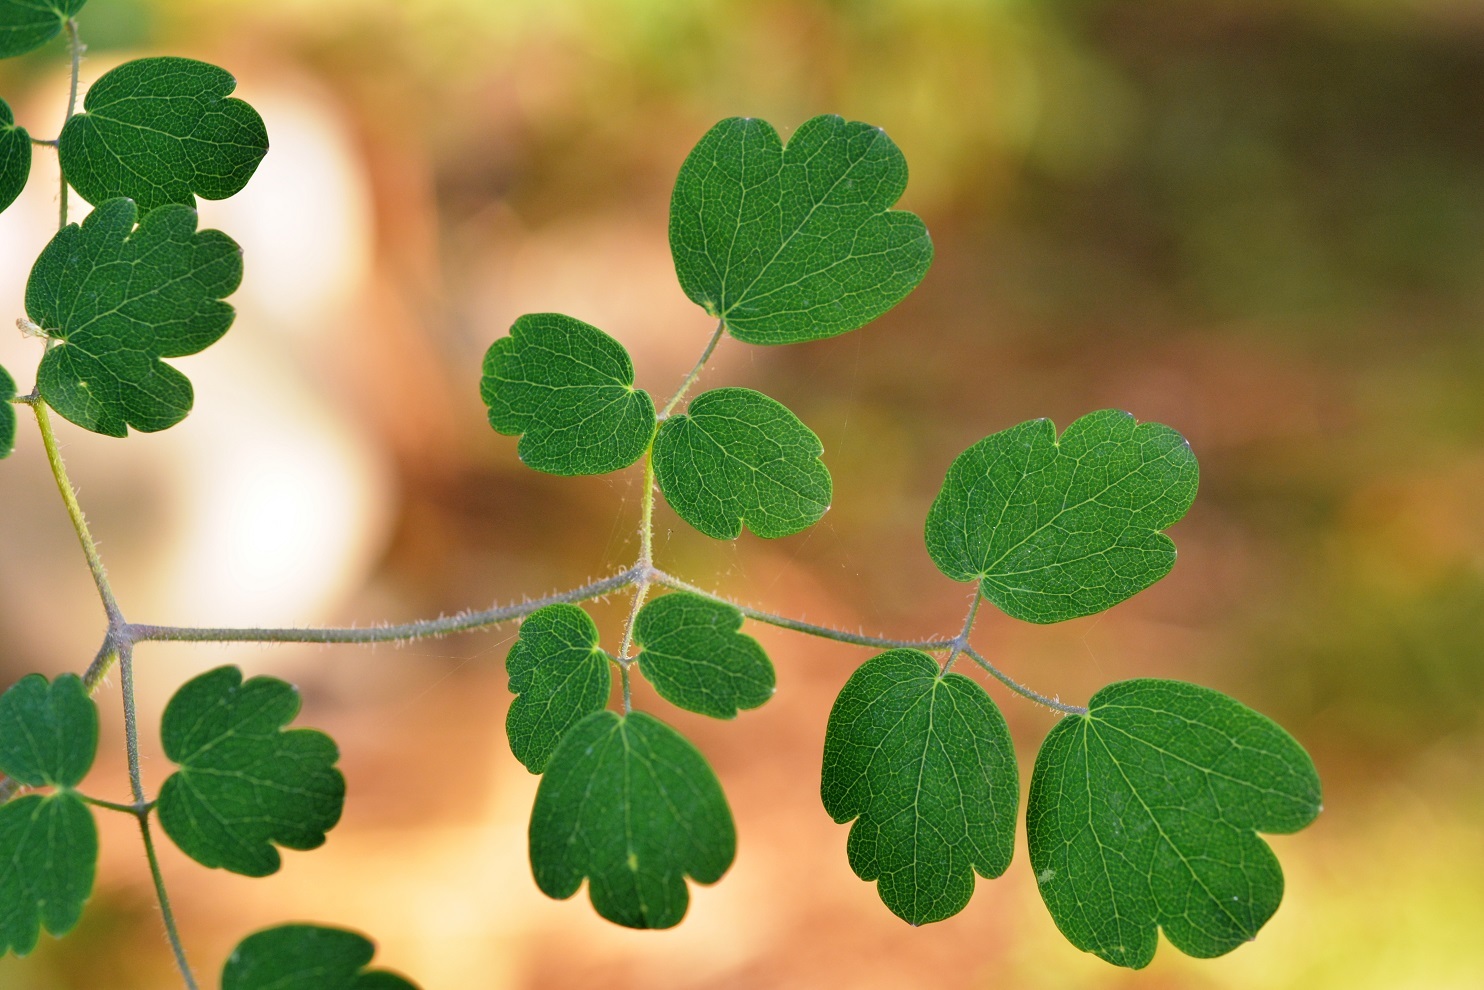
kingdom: Plantae
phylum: Tracheophyta
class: Magnoliopsida
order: Ranunculales
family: Ranunculaceae
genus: Thalictrum
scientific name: Thalictrum guatemalense
